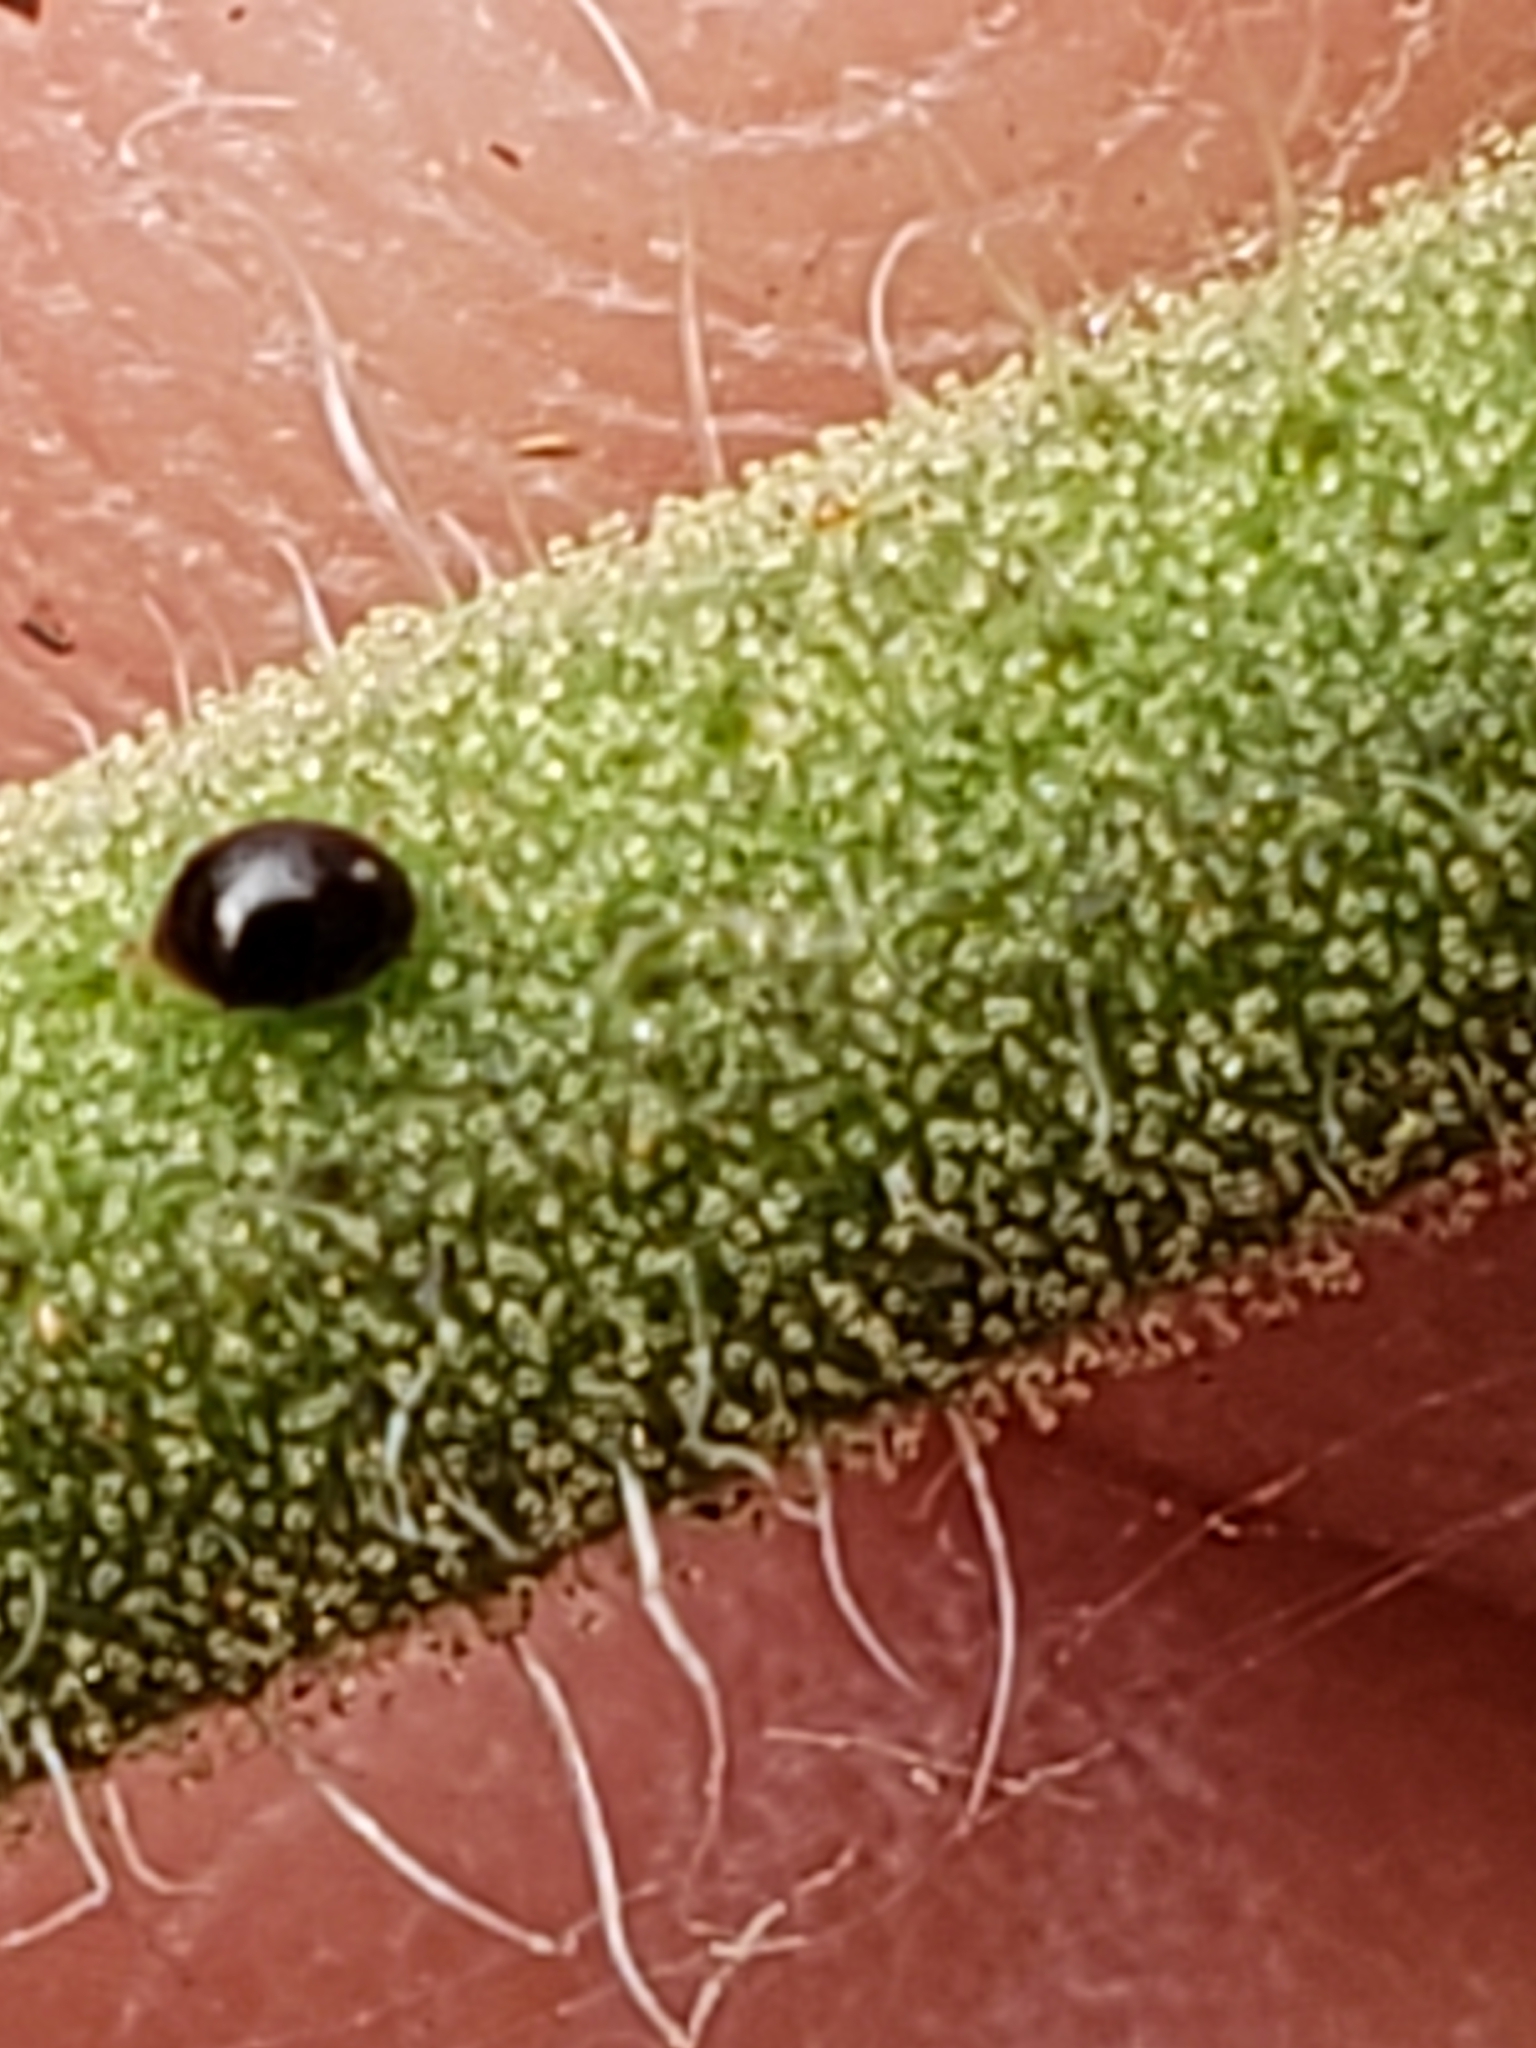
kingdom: Animalia
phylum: Arthropoda
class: Insecta
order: Coleoptera
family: Coccinellidae
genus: Microweisea
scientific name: Microweisea misella
